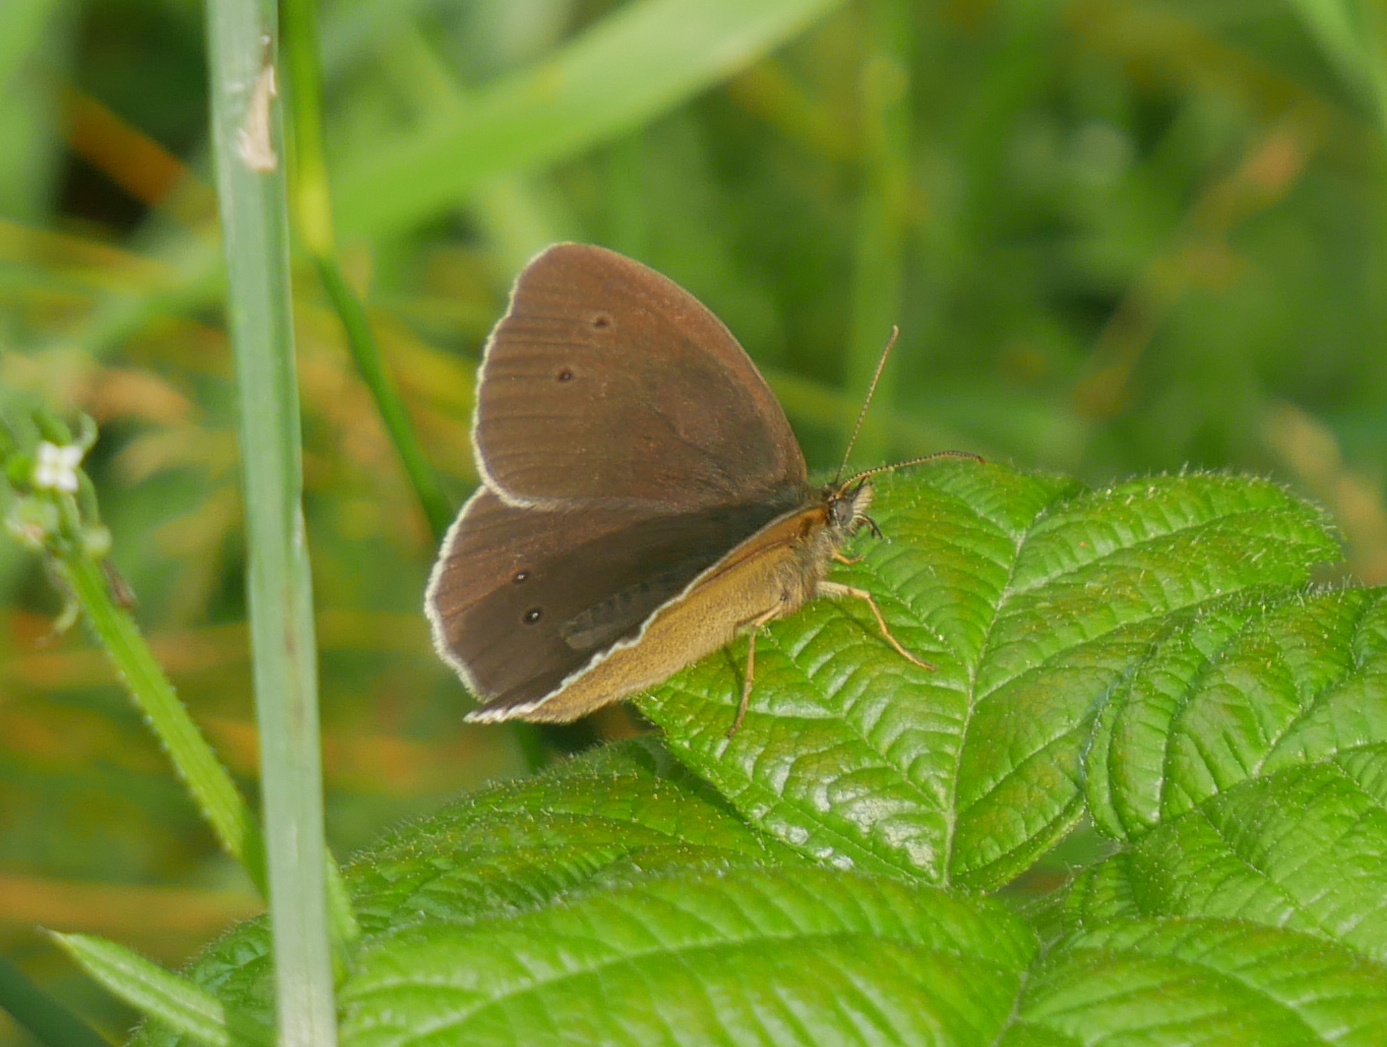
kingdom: Animalia
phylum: Arthropoda
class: Insecta
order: Lepidoptera
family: Nymphalidae
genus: Aphantopus
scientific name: Aphantopus hyperantus
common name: Ringlet
